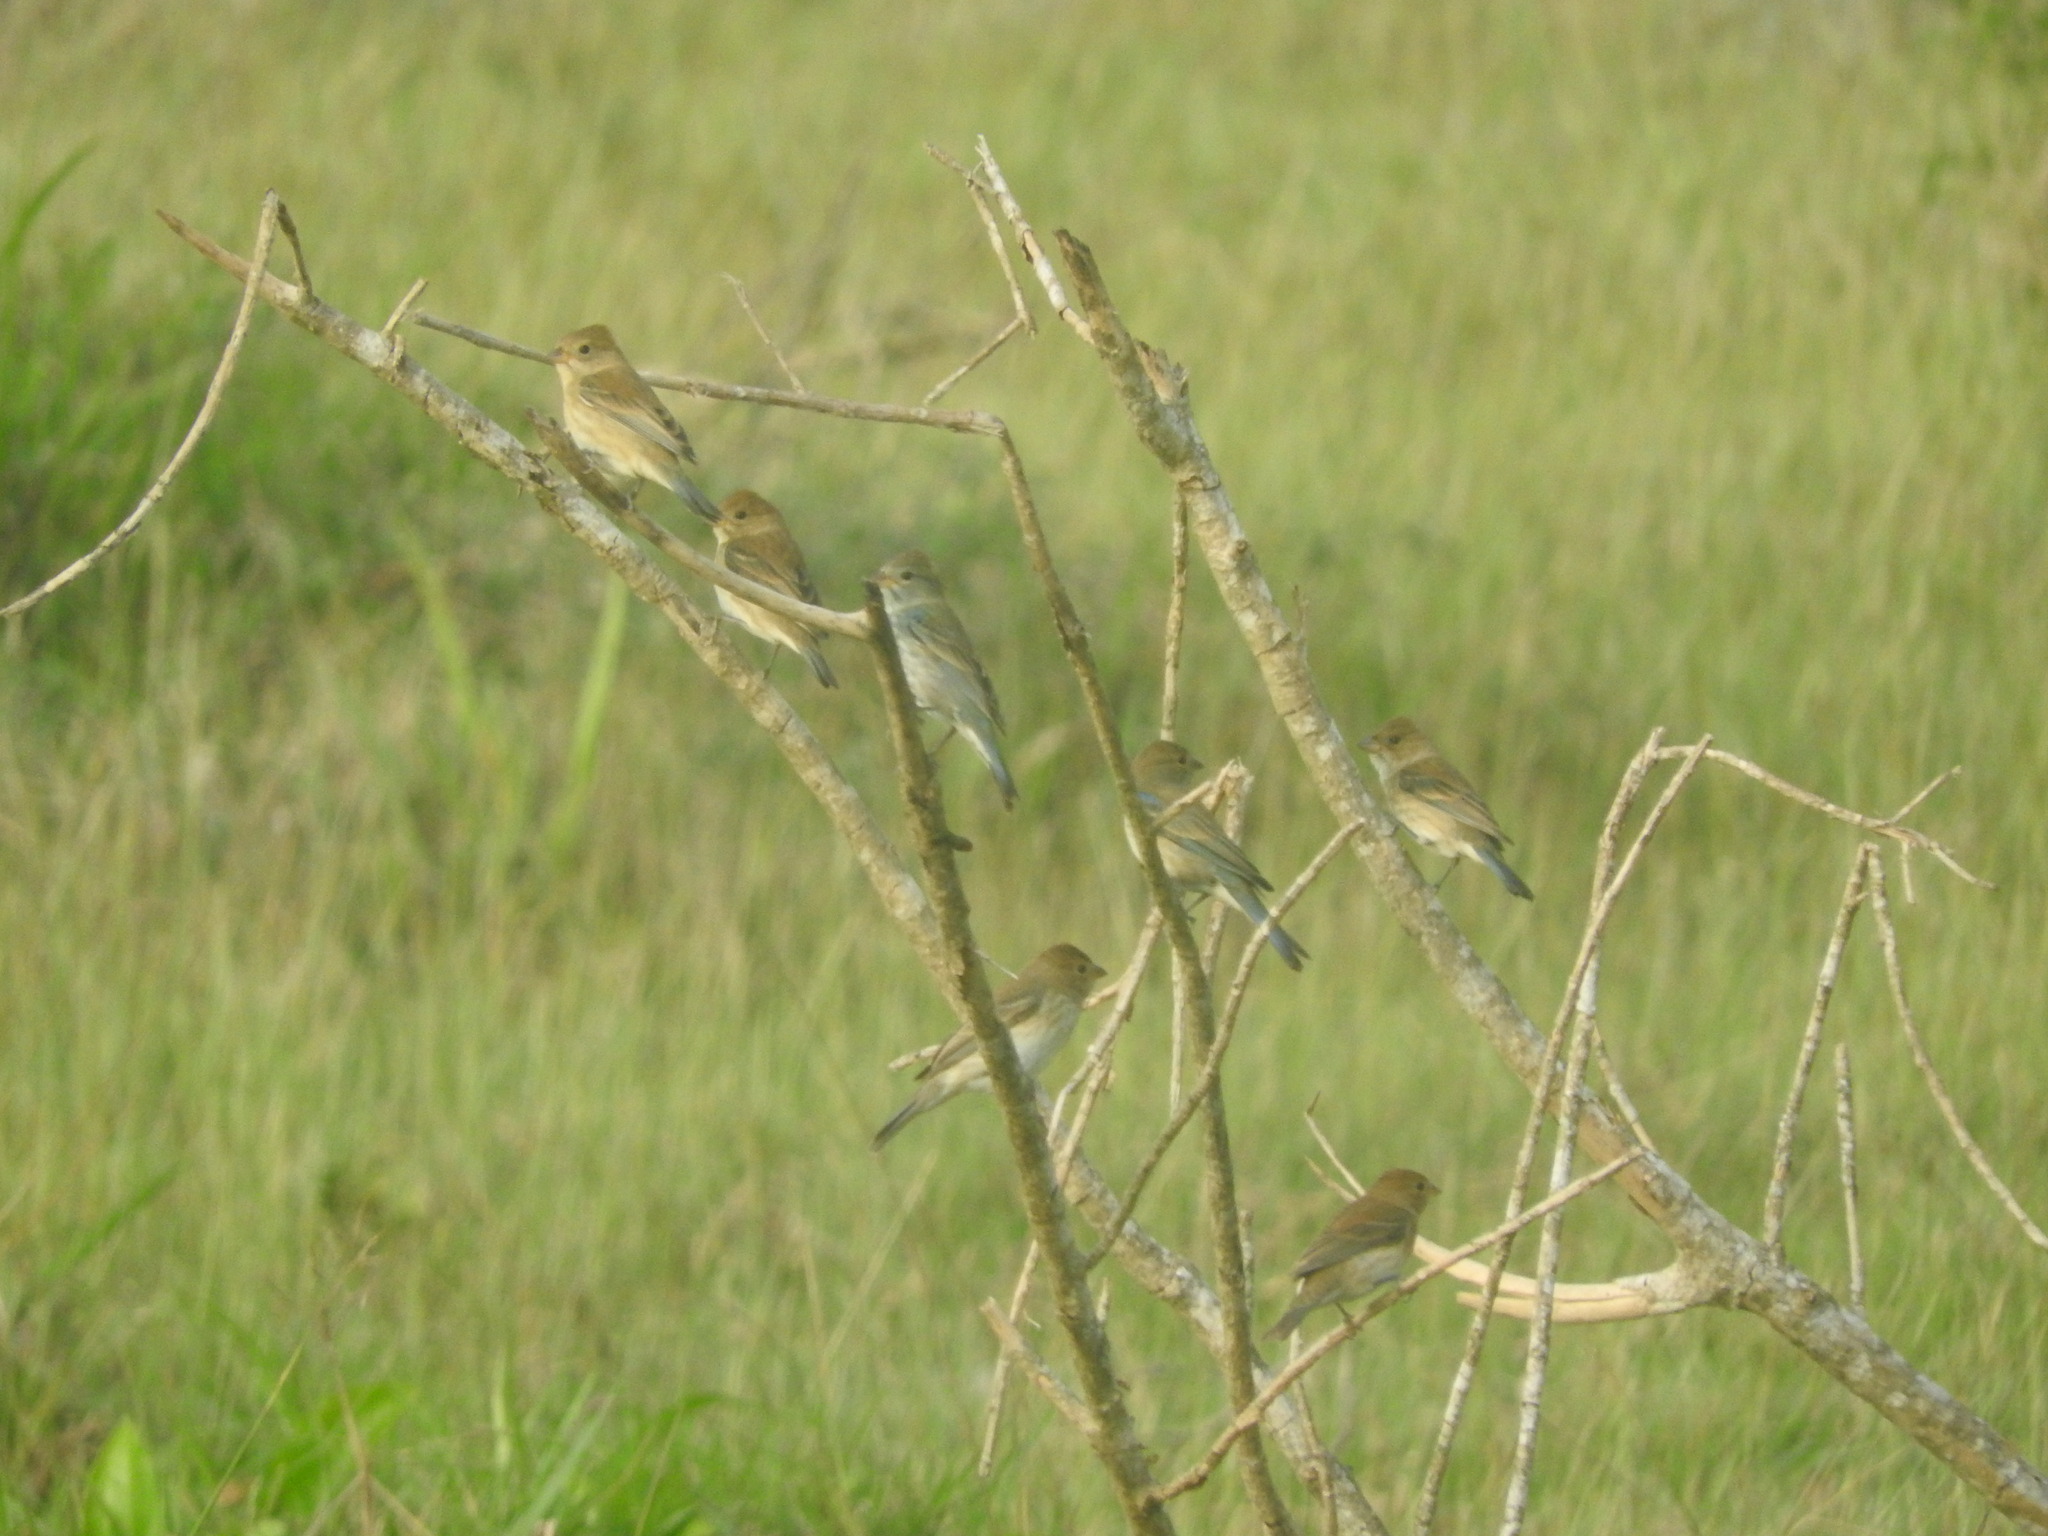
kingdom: Animalia
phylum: Chordata
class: Aves
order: Passeriformes
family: Cardinalidae
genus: Passerina
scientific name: Passerina cyanea
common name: Indigo bunting
